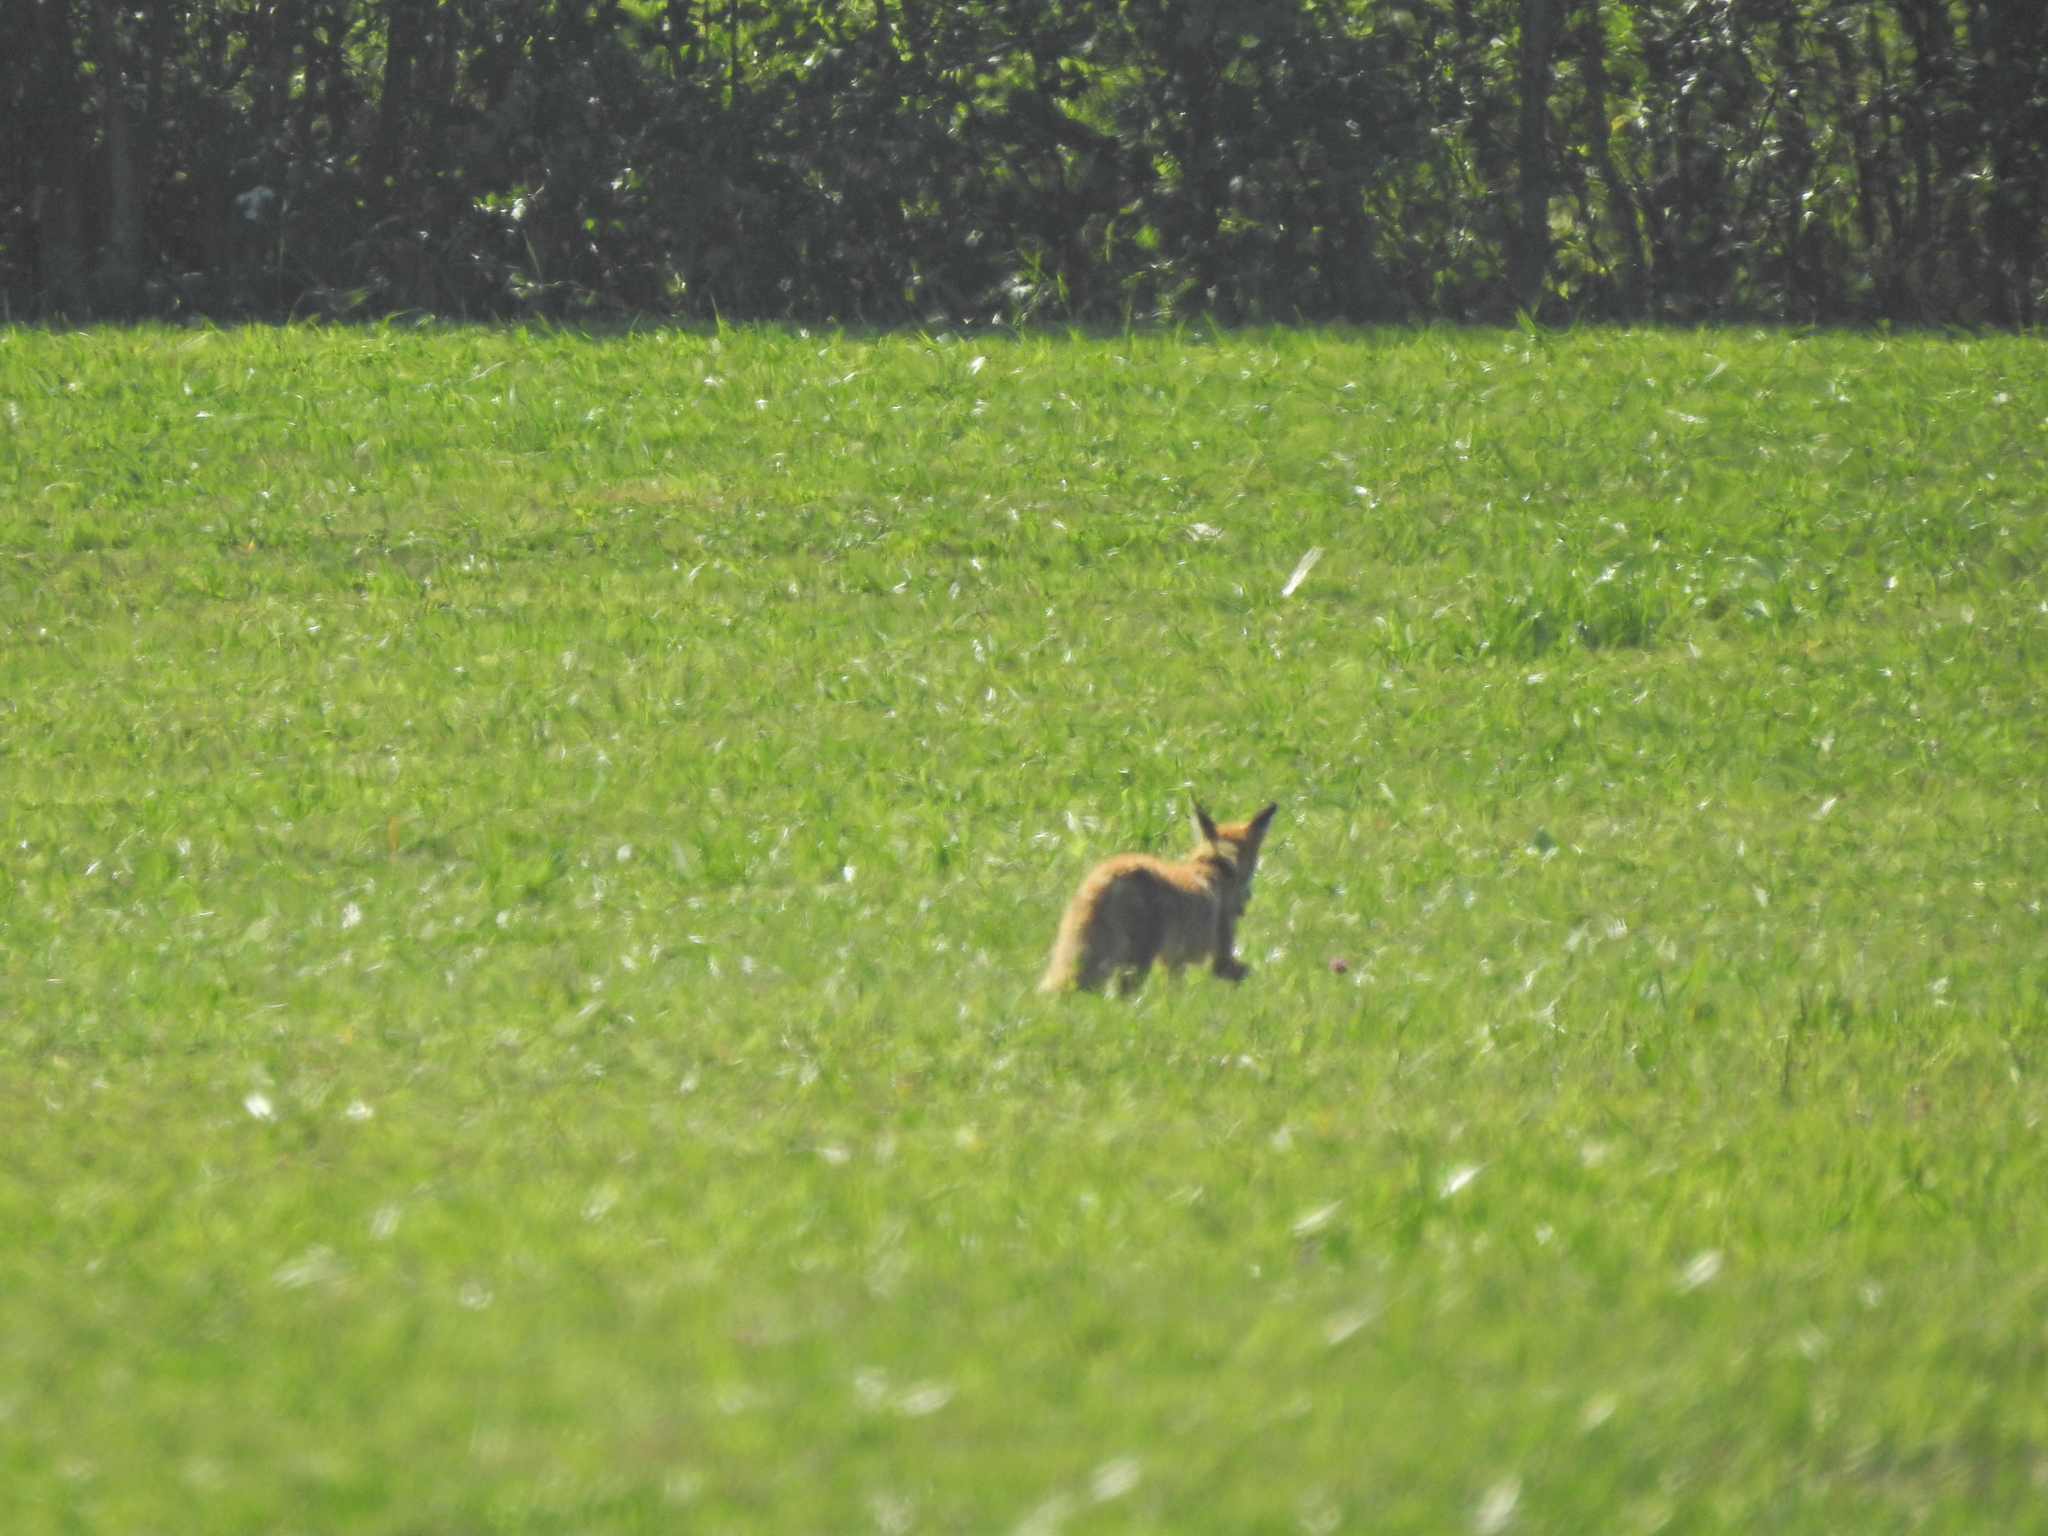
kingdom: Animalia
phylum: Chordata
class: Mammalia
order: Carnivora
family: Canidae
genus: Vulpes
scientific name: Vulpes vulpes
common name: Red fox
